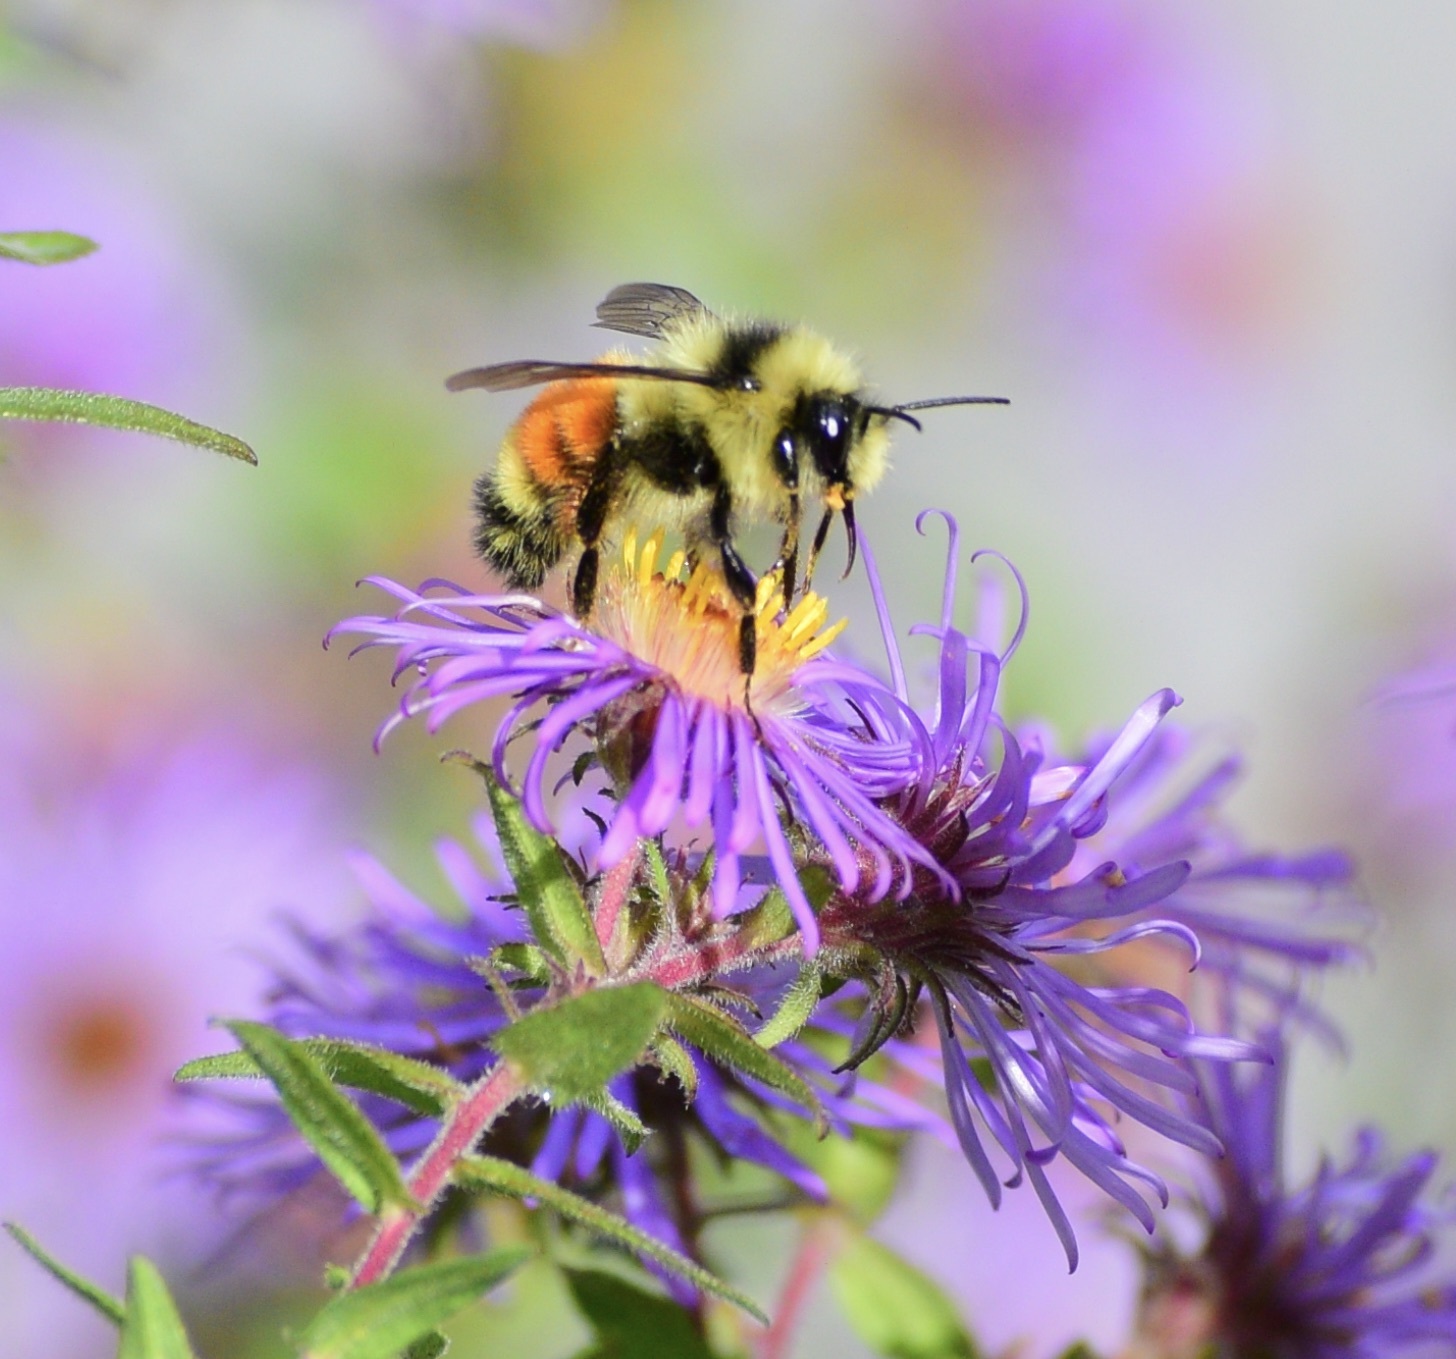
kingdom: Animalia
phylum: Arthropoda
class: Insecta
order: Hymenoptera
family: Apidae
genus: Bombus
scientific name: Bombus ternarius
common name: Tri-colored bumble bee
